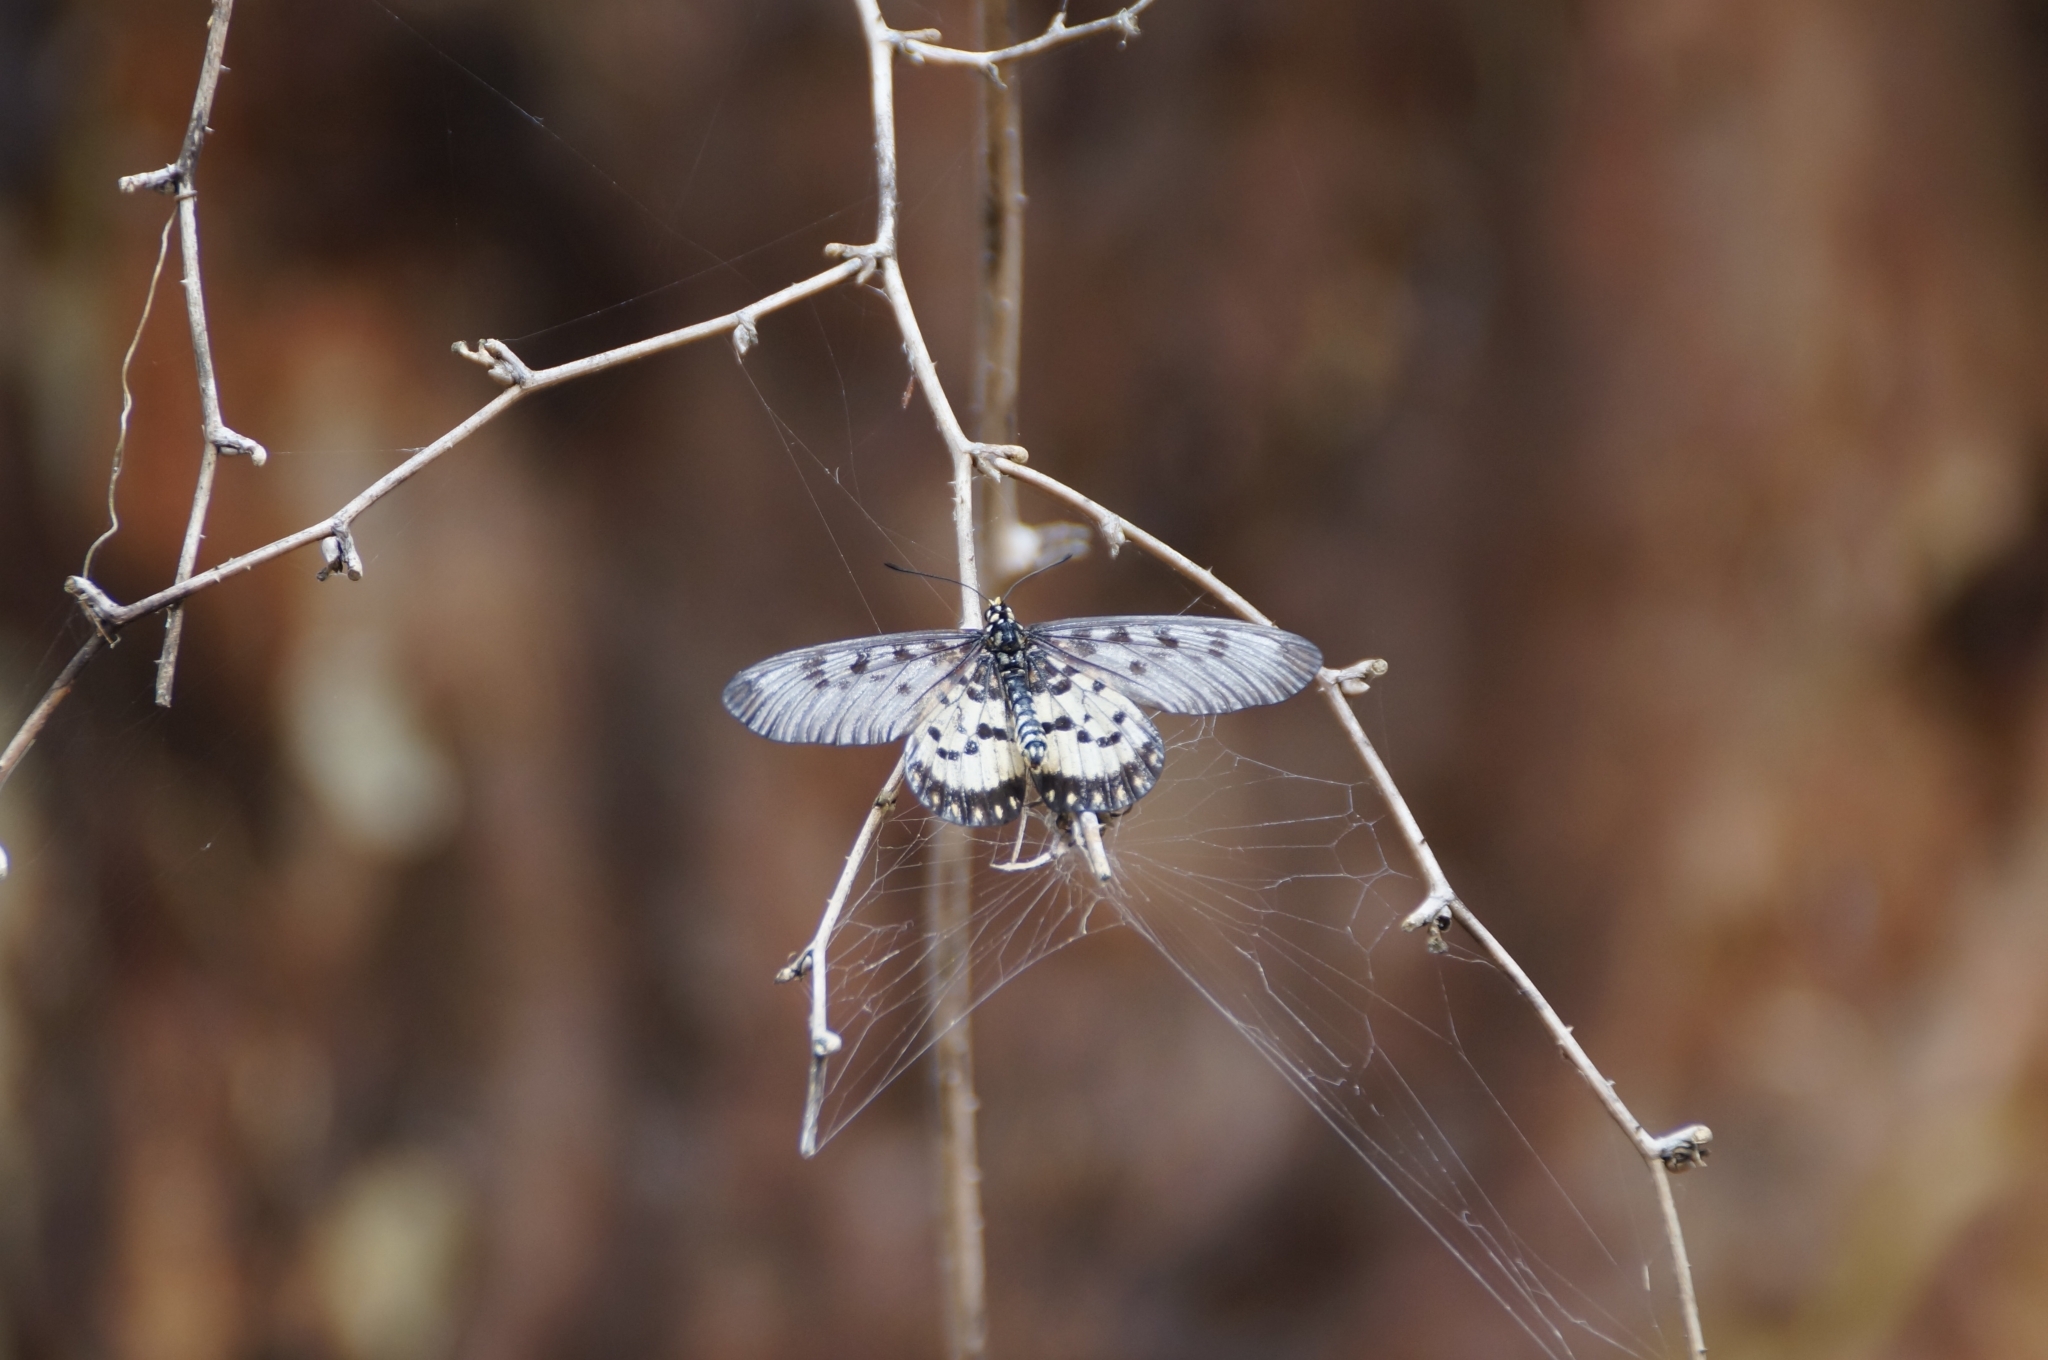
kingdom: Animalia
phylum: Arthropoda
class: Insecta
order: Lepidoptera
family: Nymphalidae
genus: Acraea
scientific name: Acraea andromacha
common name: Glasswing
